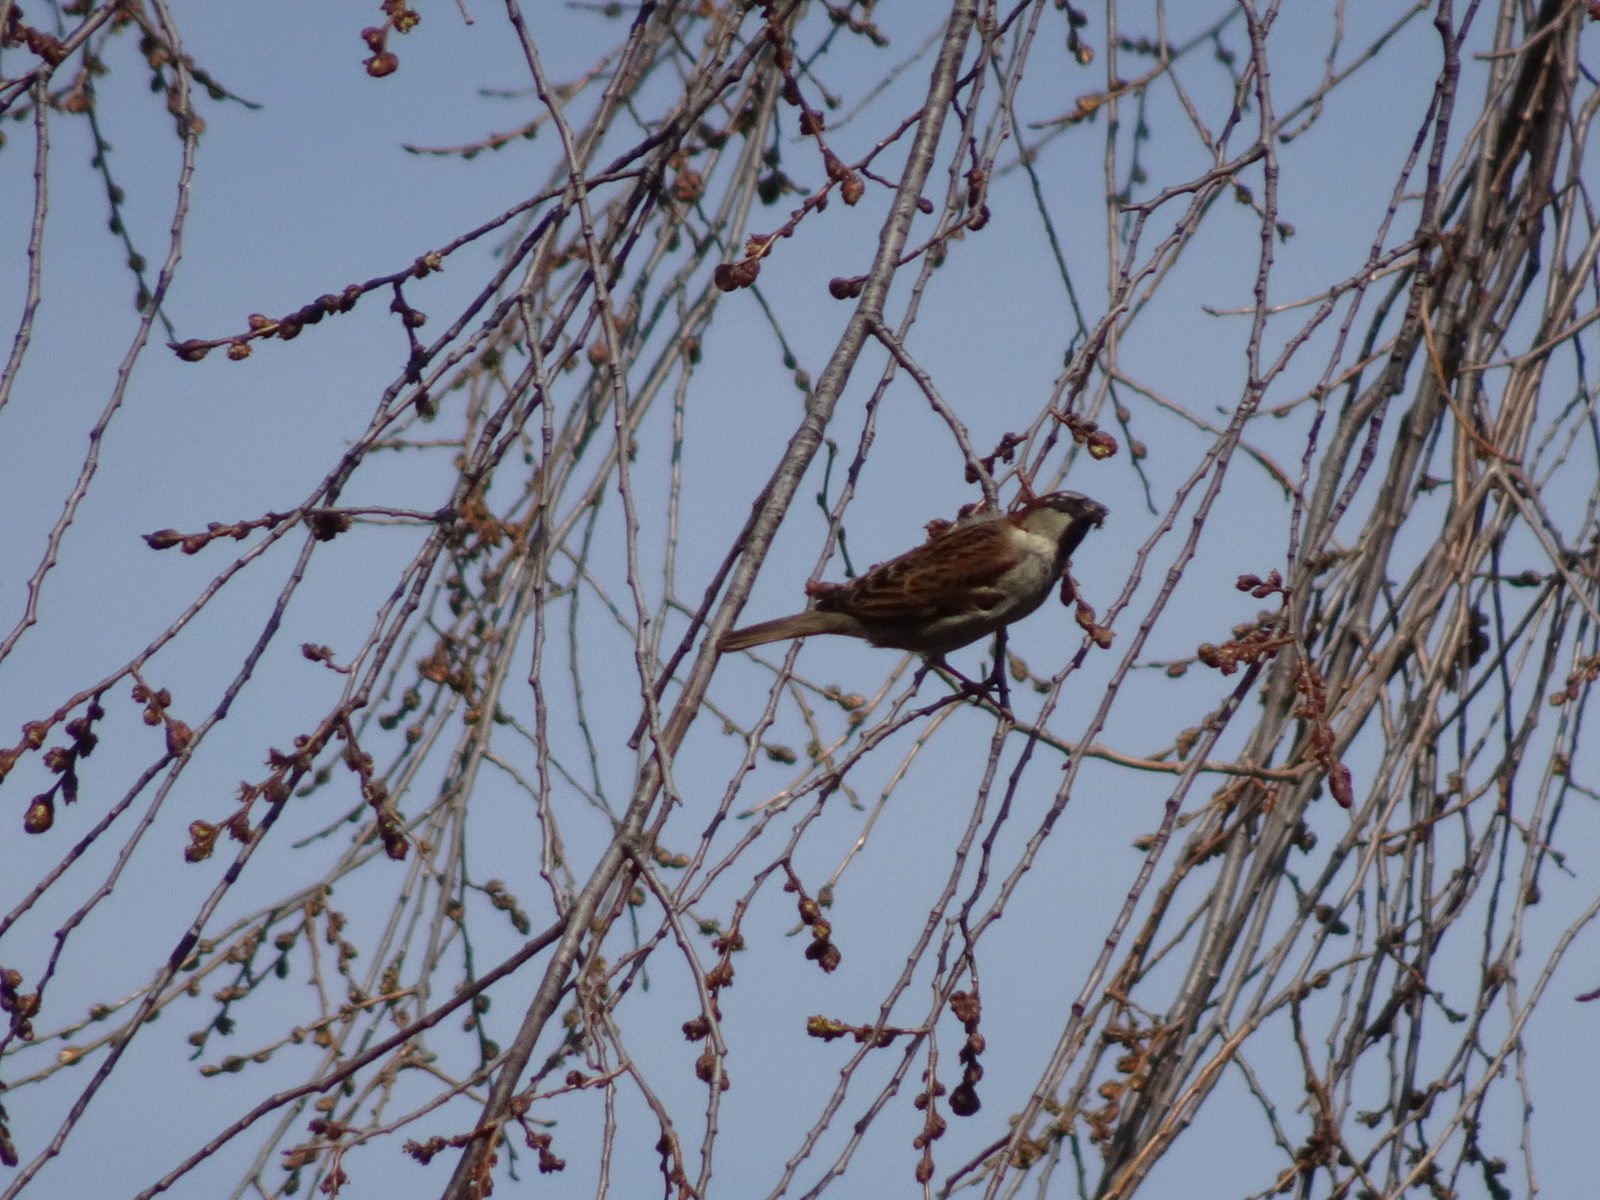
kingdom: Animalia
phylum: Chordata
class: Aves
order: Passeriformes
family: Passeridae
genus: Passer
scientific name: Passer domesticus
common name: House sparrow
